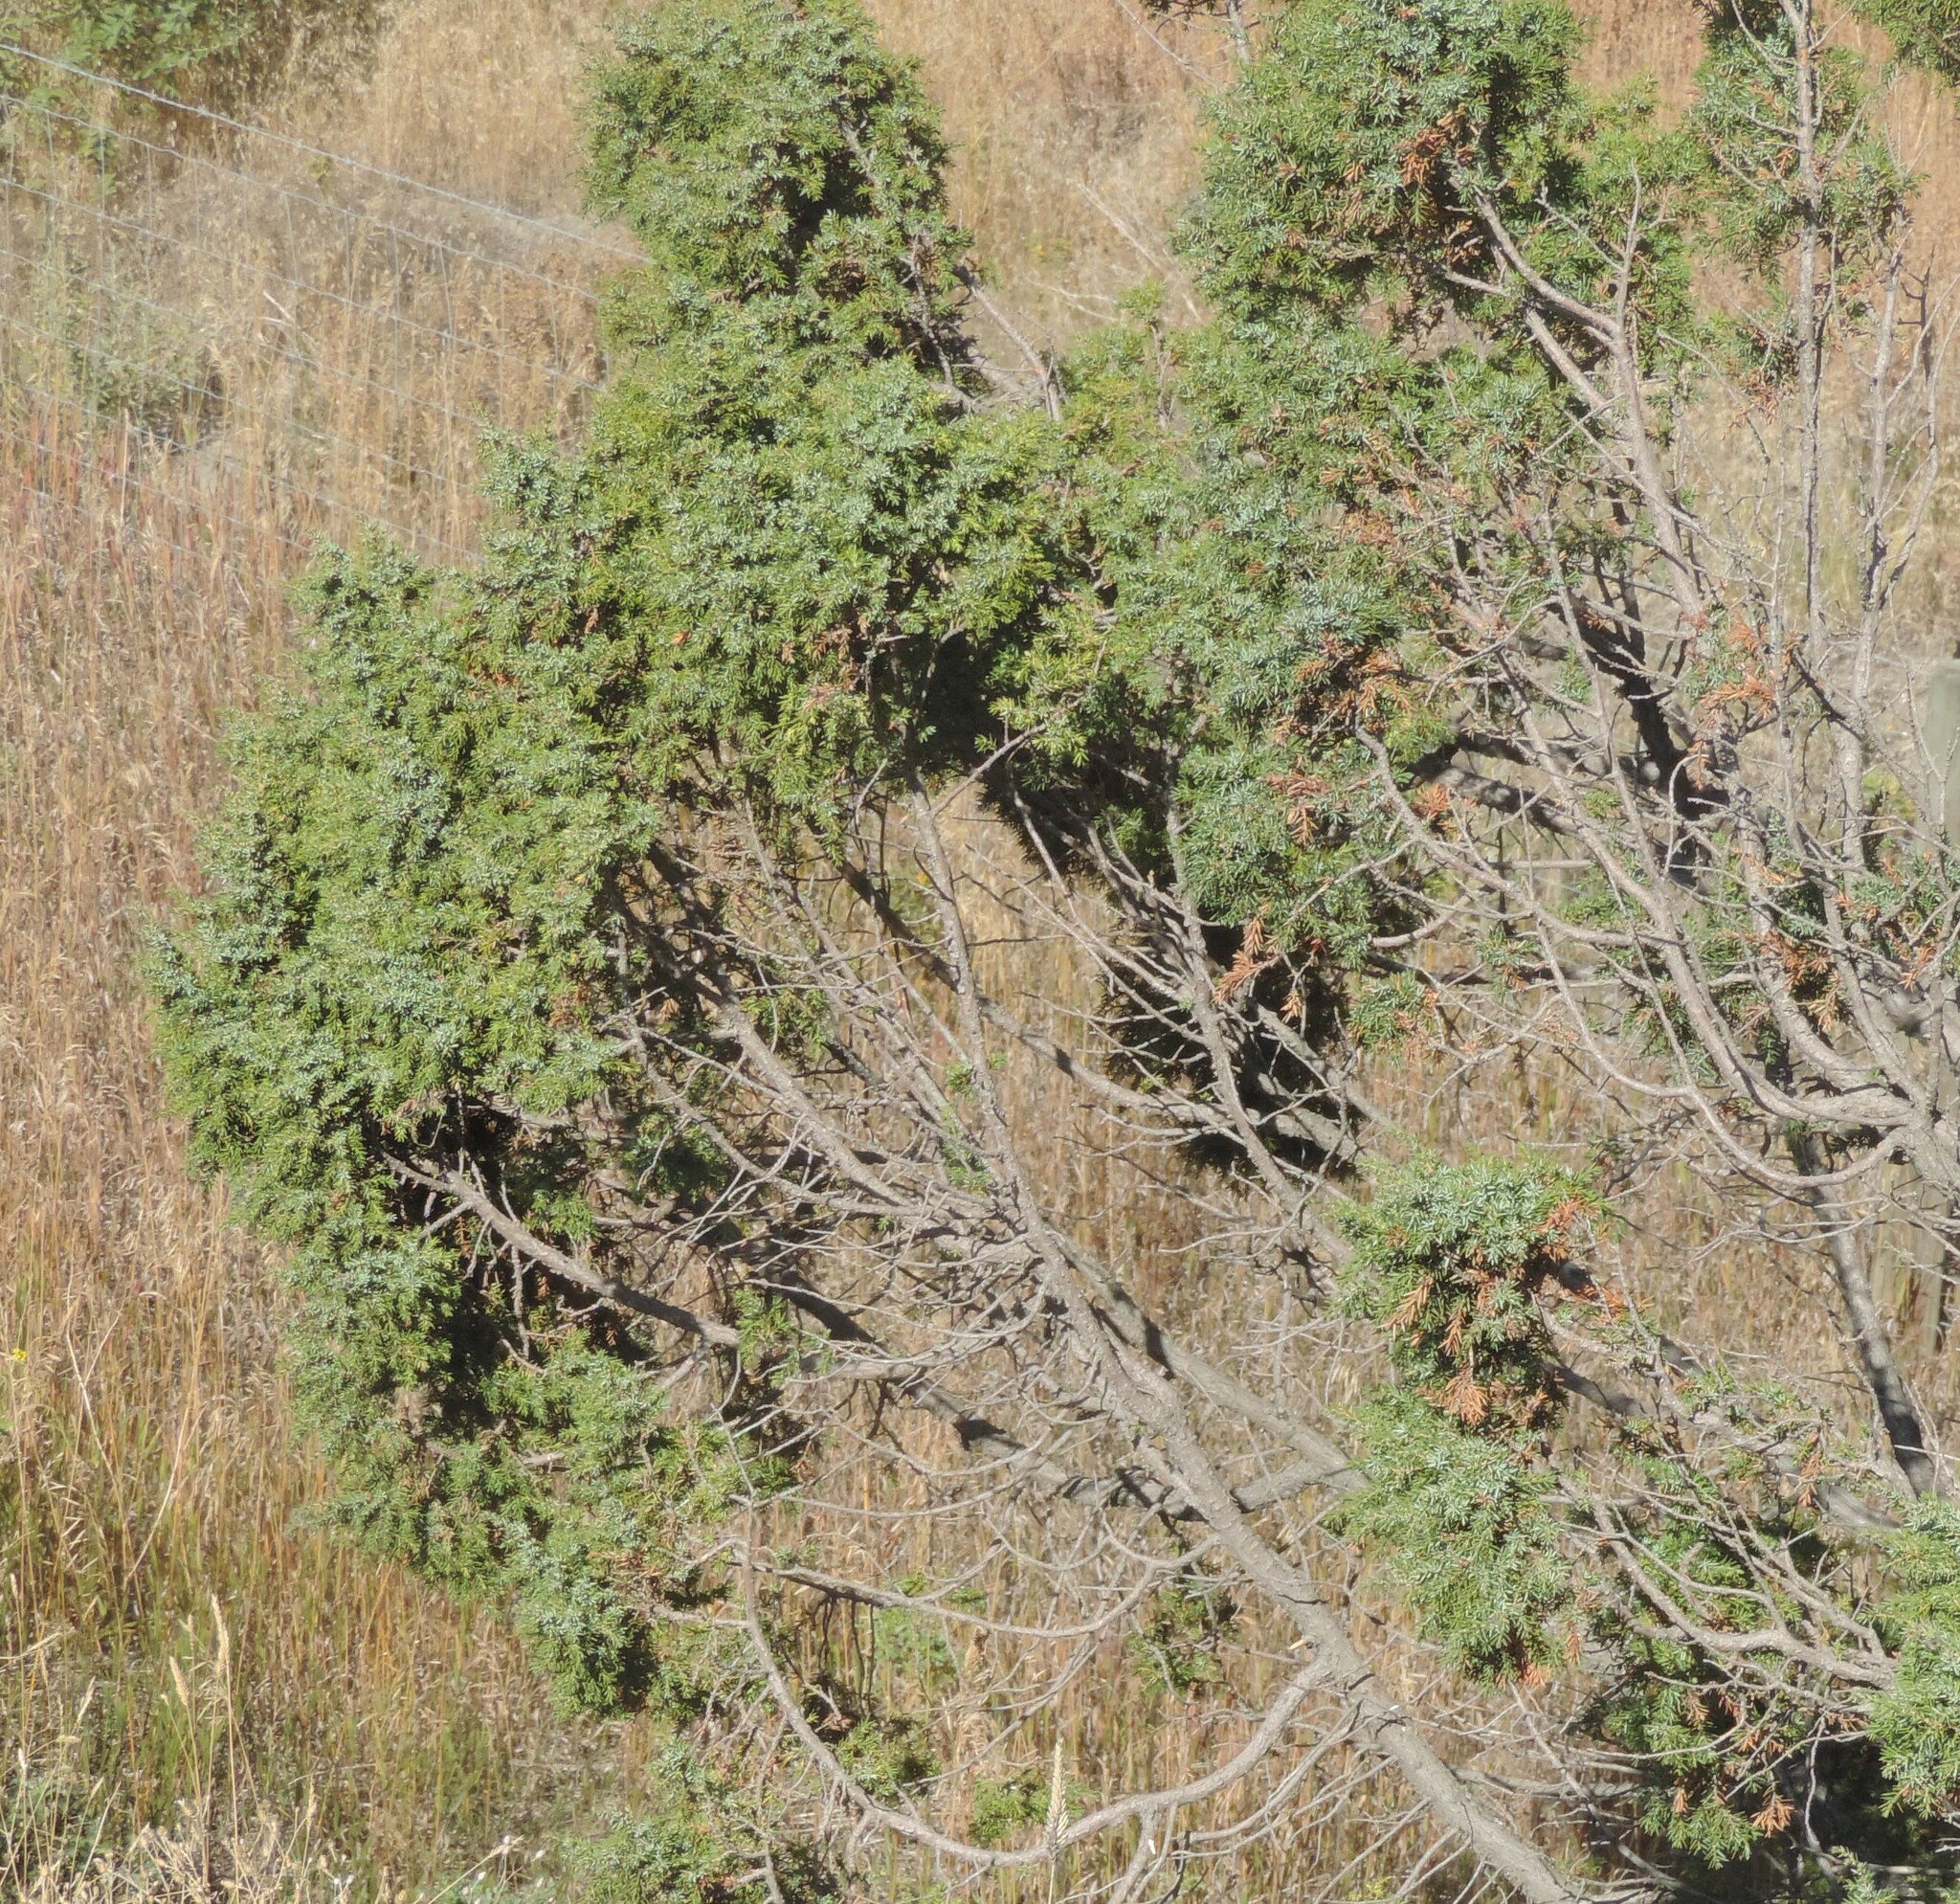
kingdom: Plantae
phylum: Tracheophyta
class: Pinopsida
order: Pinales
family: Cupressaceae
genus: Juniperus
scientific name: Juniperus scopulorum
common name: Rocky mountain juniper
